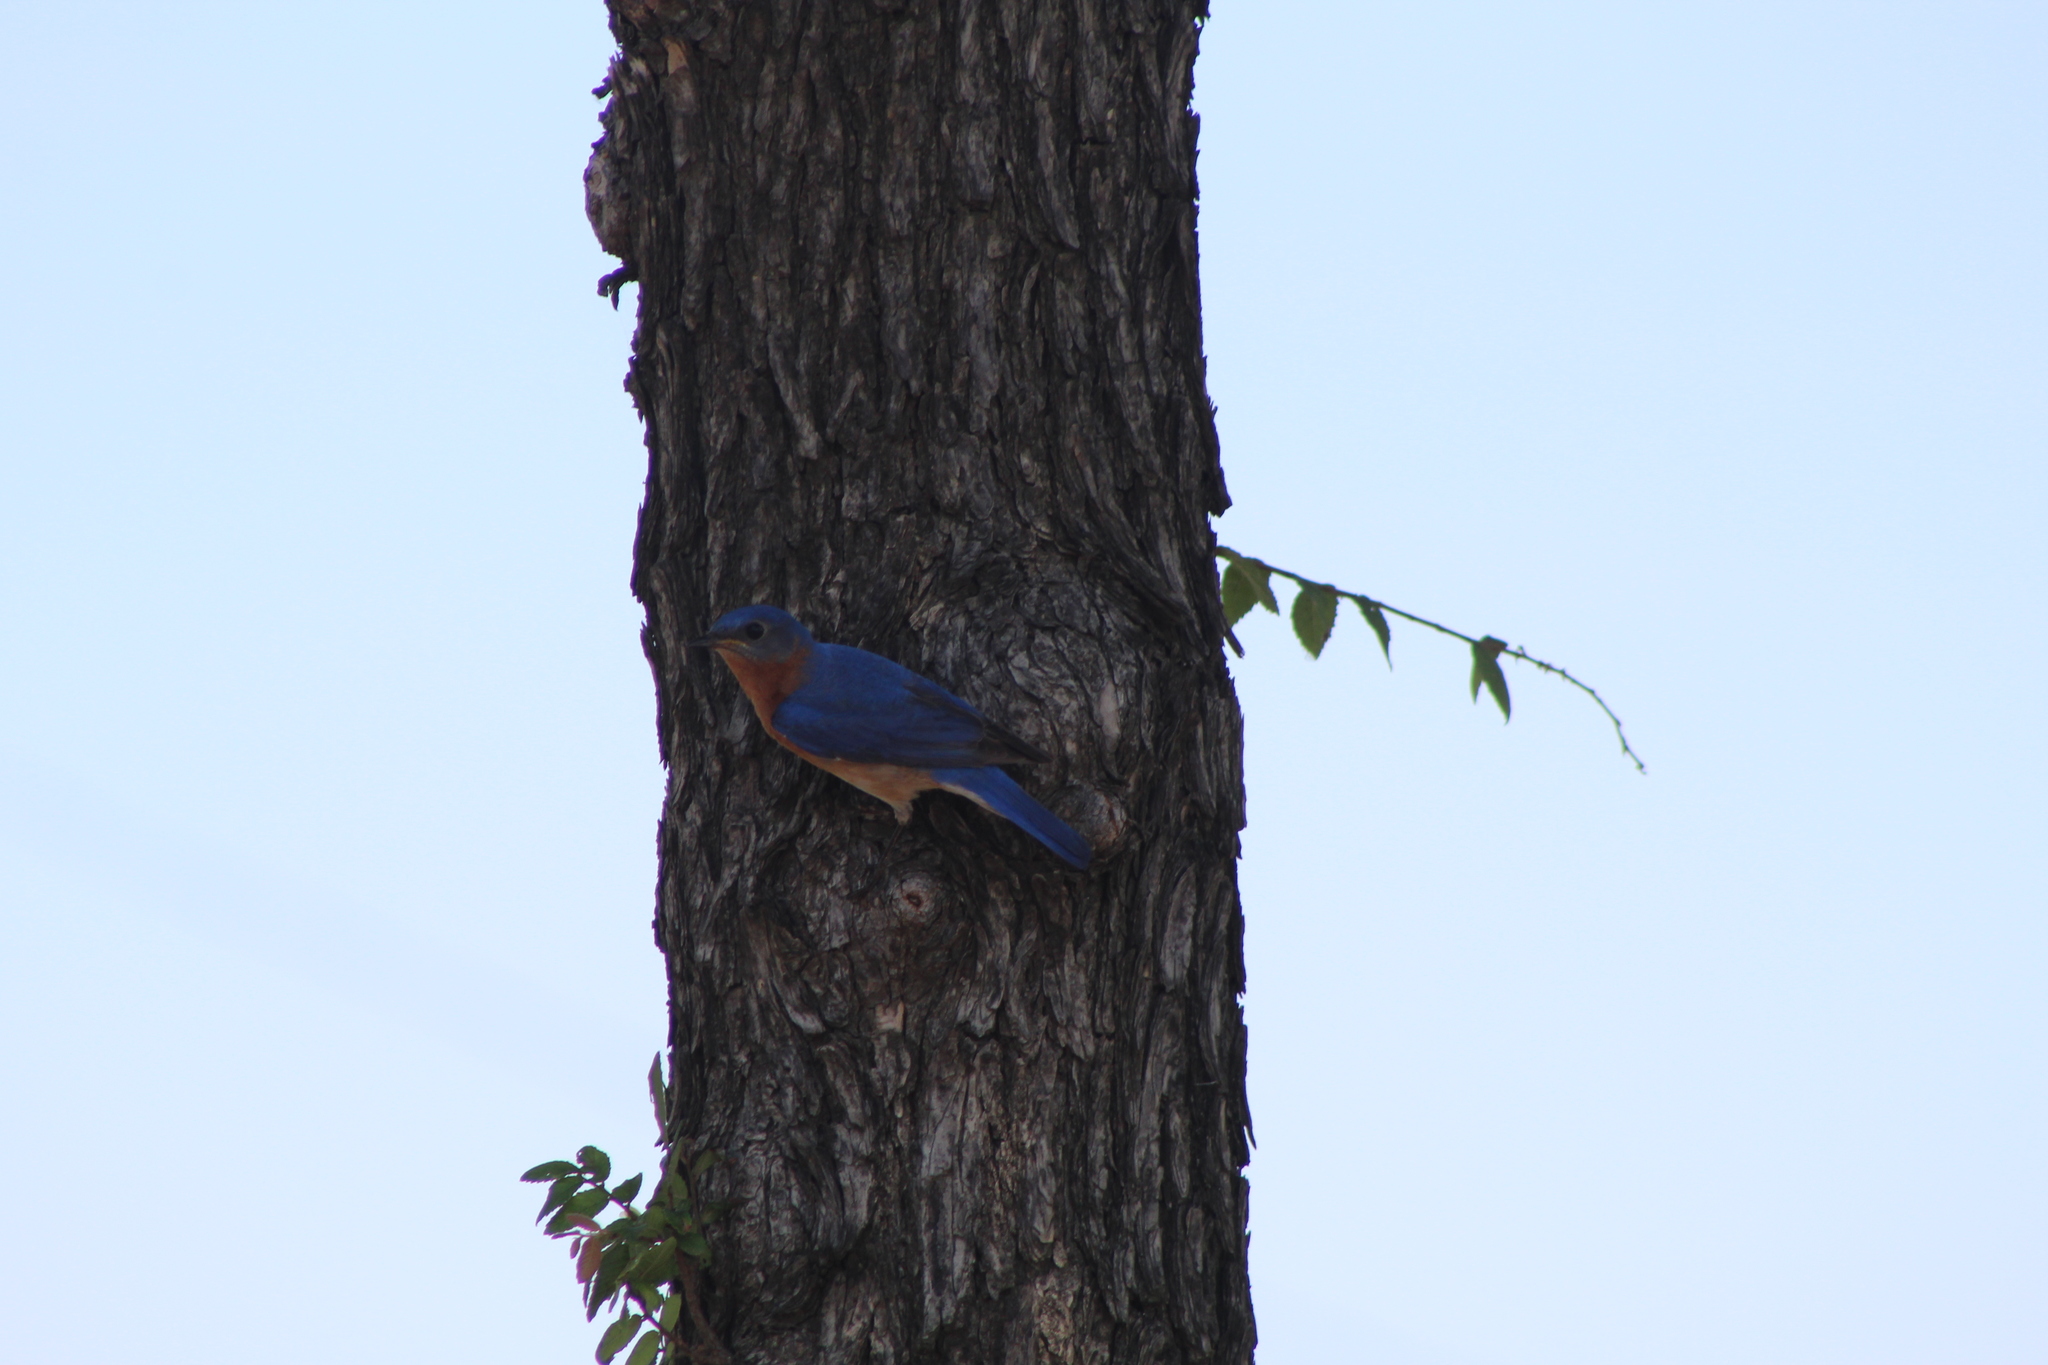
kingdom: Animalia
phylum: Chordata
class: Aves
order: Passeriformes
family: Turdidae
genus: Sialia
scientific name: Sialia sialis
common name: Eastern bluebird
